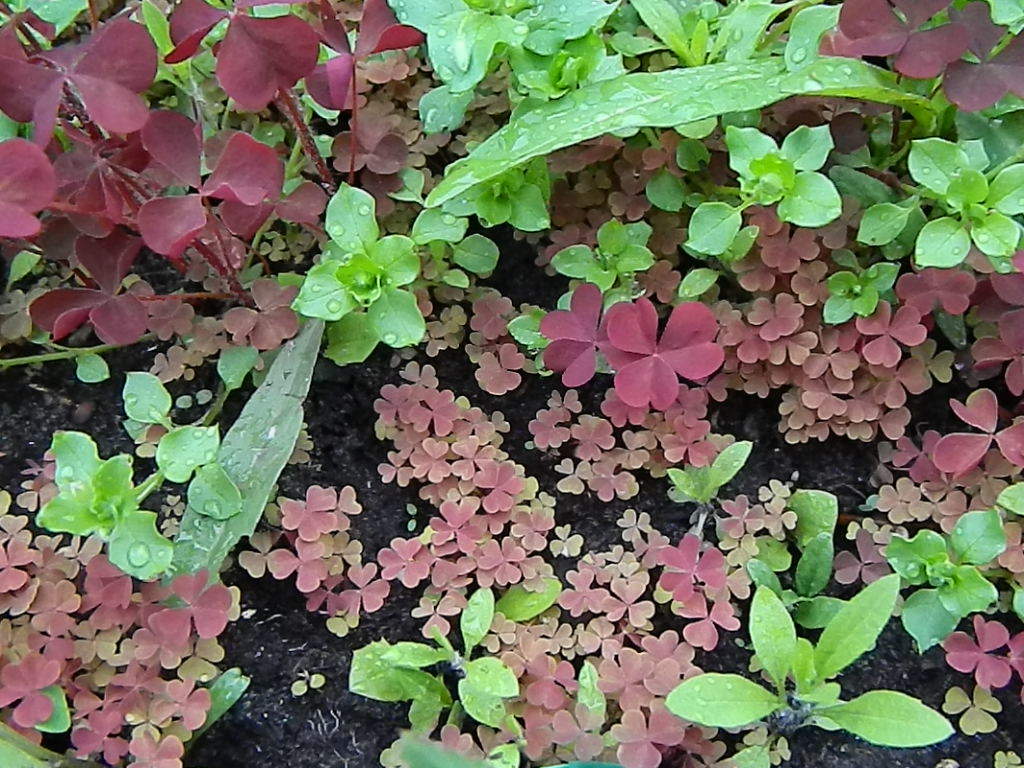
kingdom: Plantae
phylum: Tracheophyta
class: Magnoliopsida
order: Caryophyllales
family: Caryophyllaceae
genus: Stellaria
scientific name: Stellaria media
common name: Common chickweed
